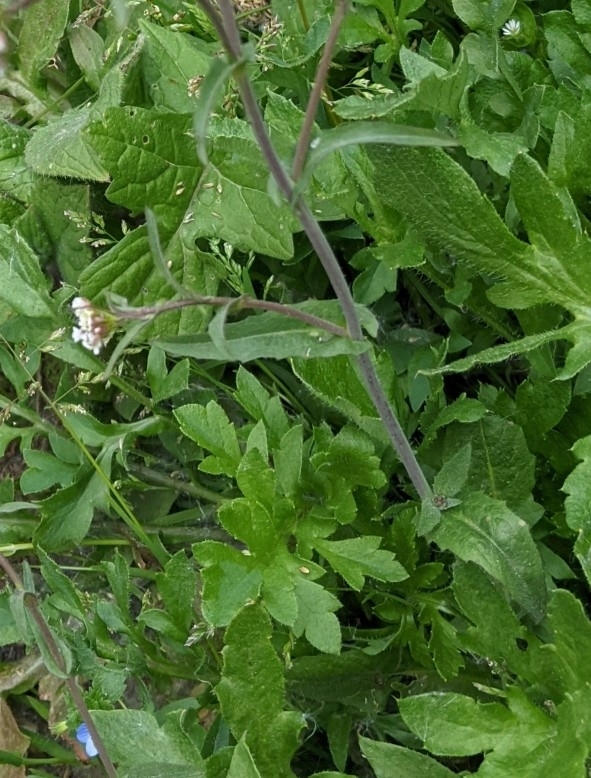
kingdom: Plantae
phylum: Tracheophyta
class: Magnoliopsida
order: Brassicales
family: Brassicaceae
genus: Capsella
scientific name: Capsella bursa-pastoris
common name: Shepherd's purse
